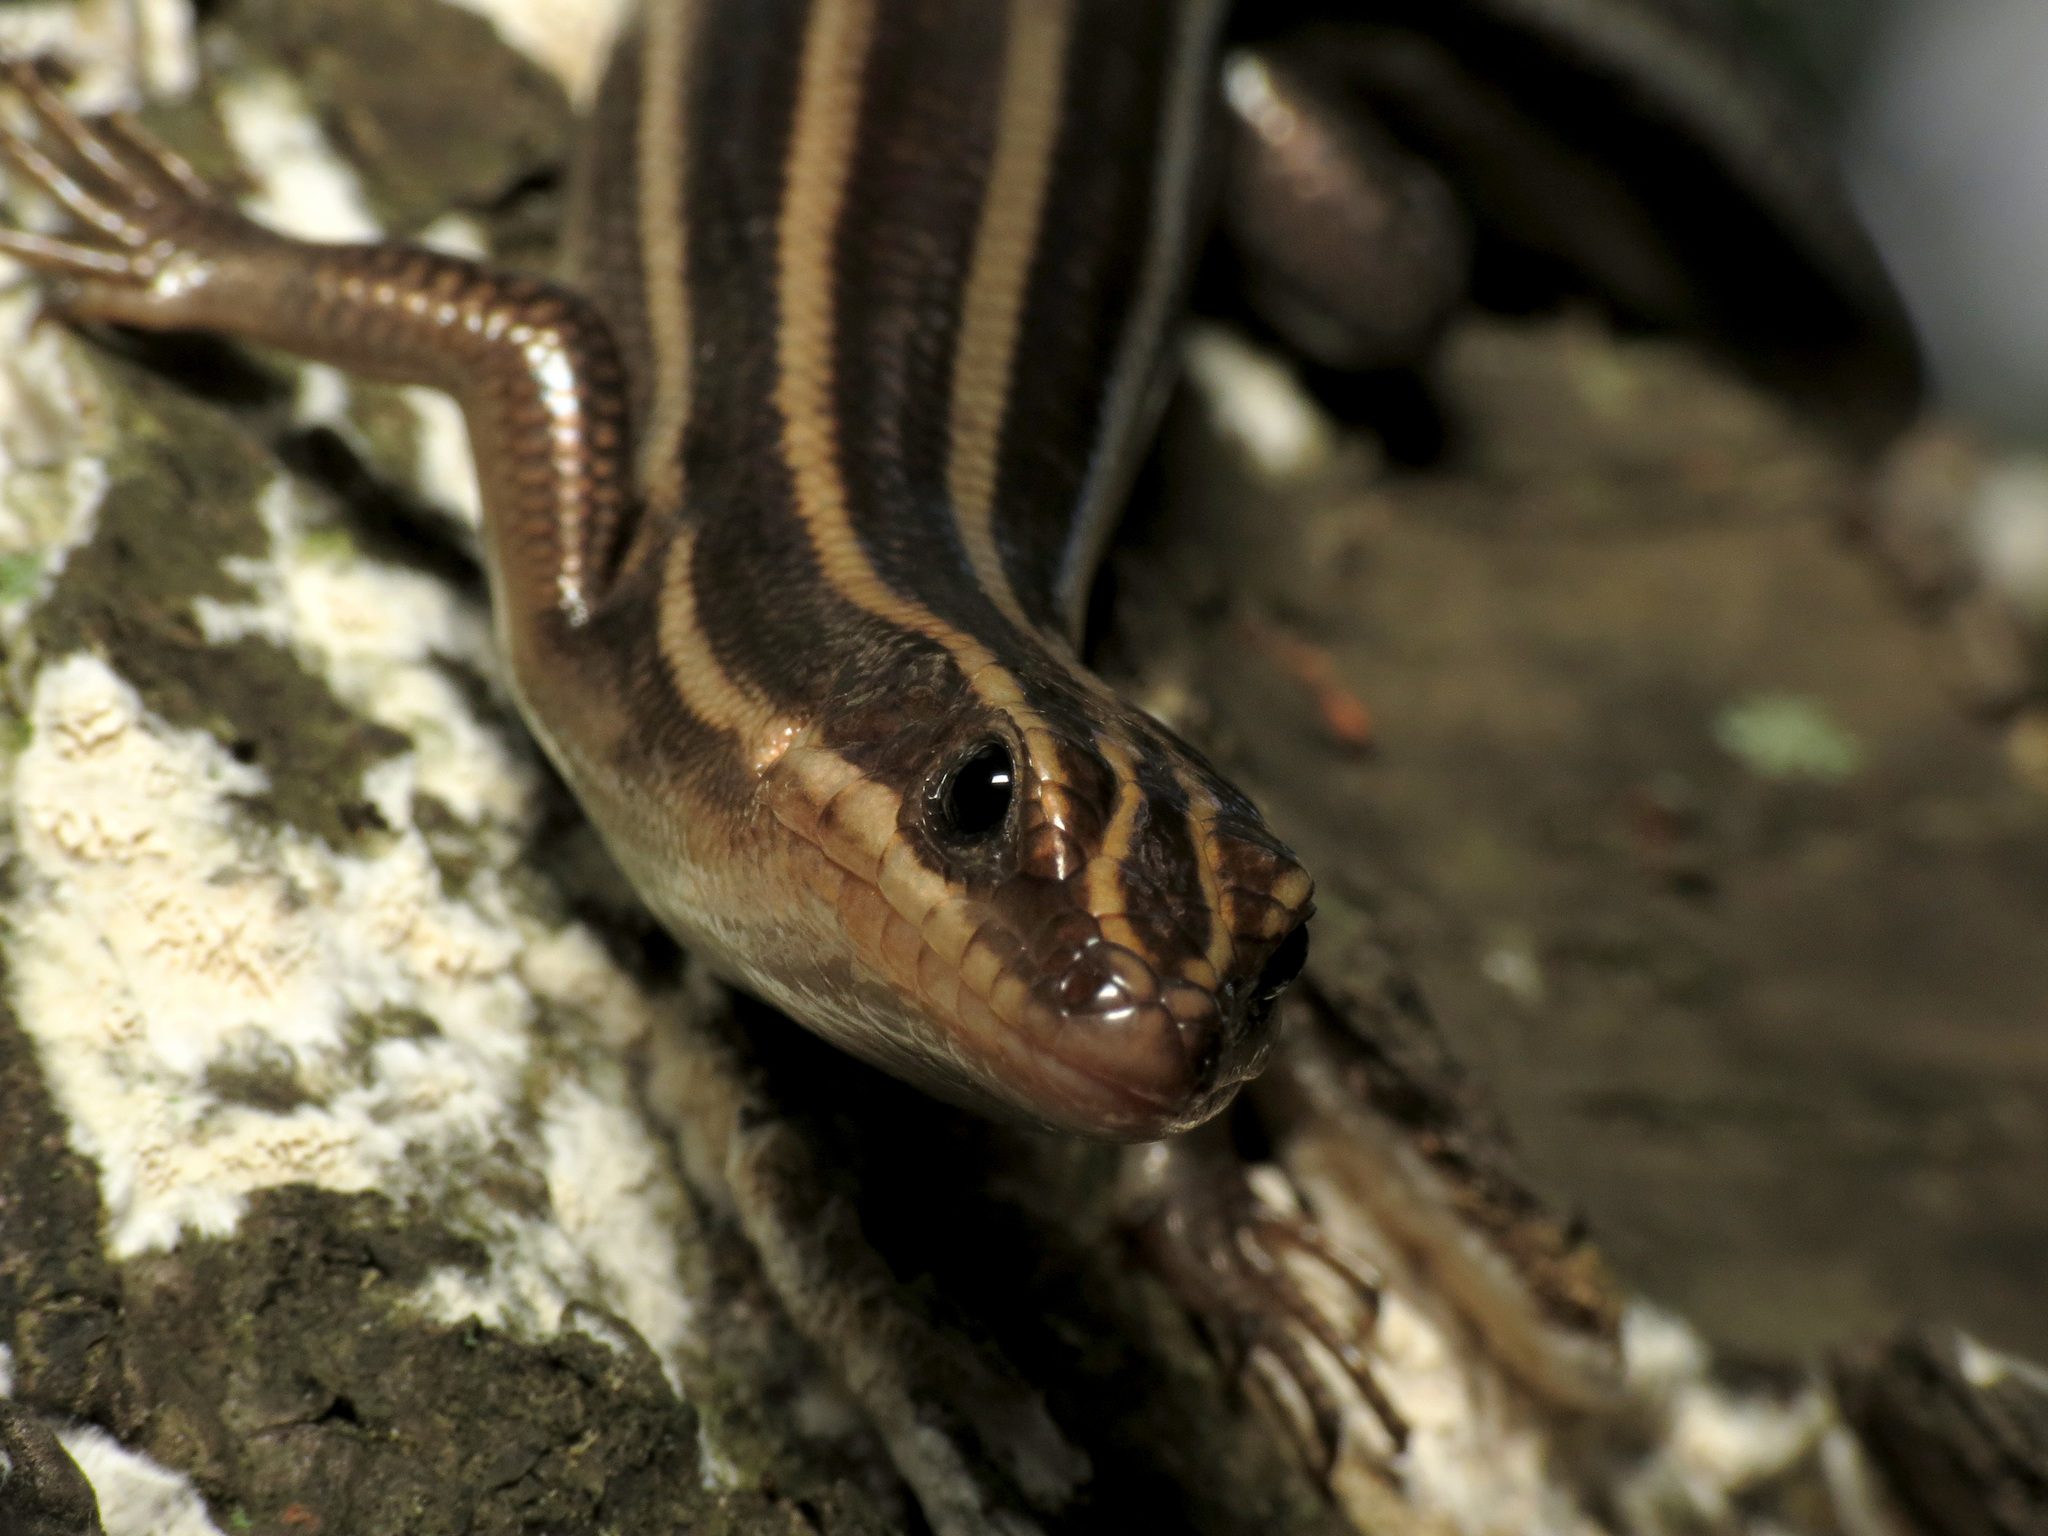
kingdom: Animalia
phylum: Chordata
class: Squamata
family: Scincidae
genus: Plestiodon
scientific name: Plestiodon fasciatus
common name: Five-lined skink
